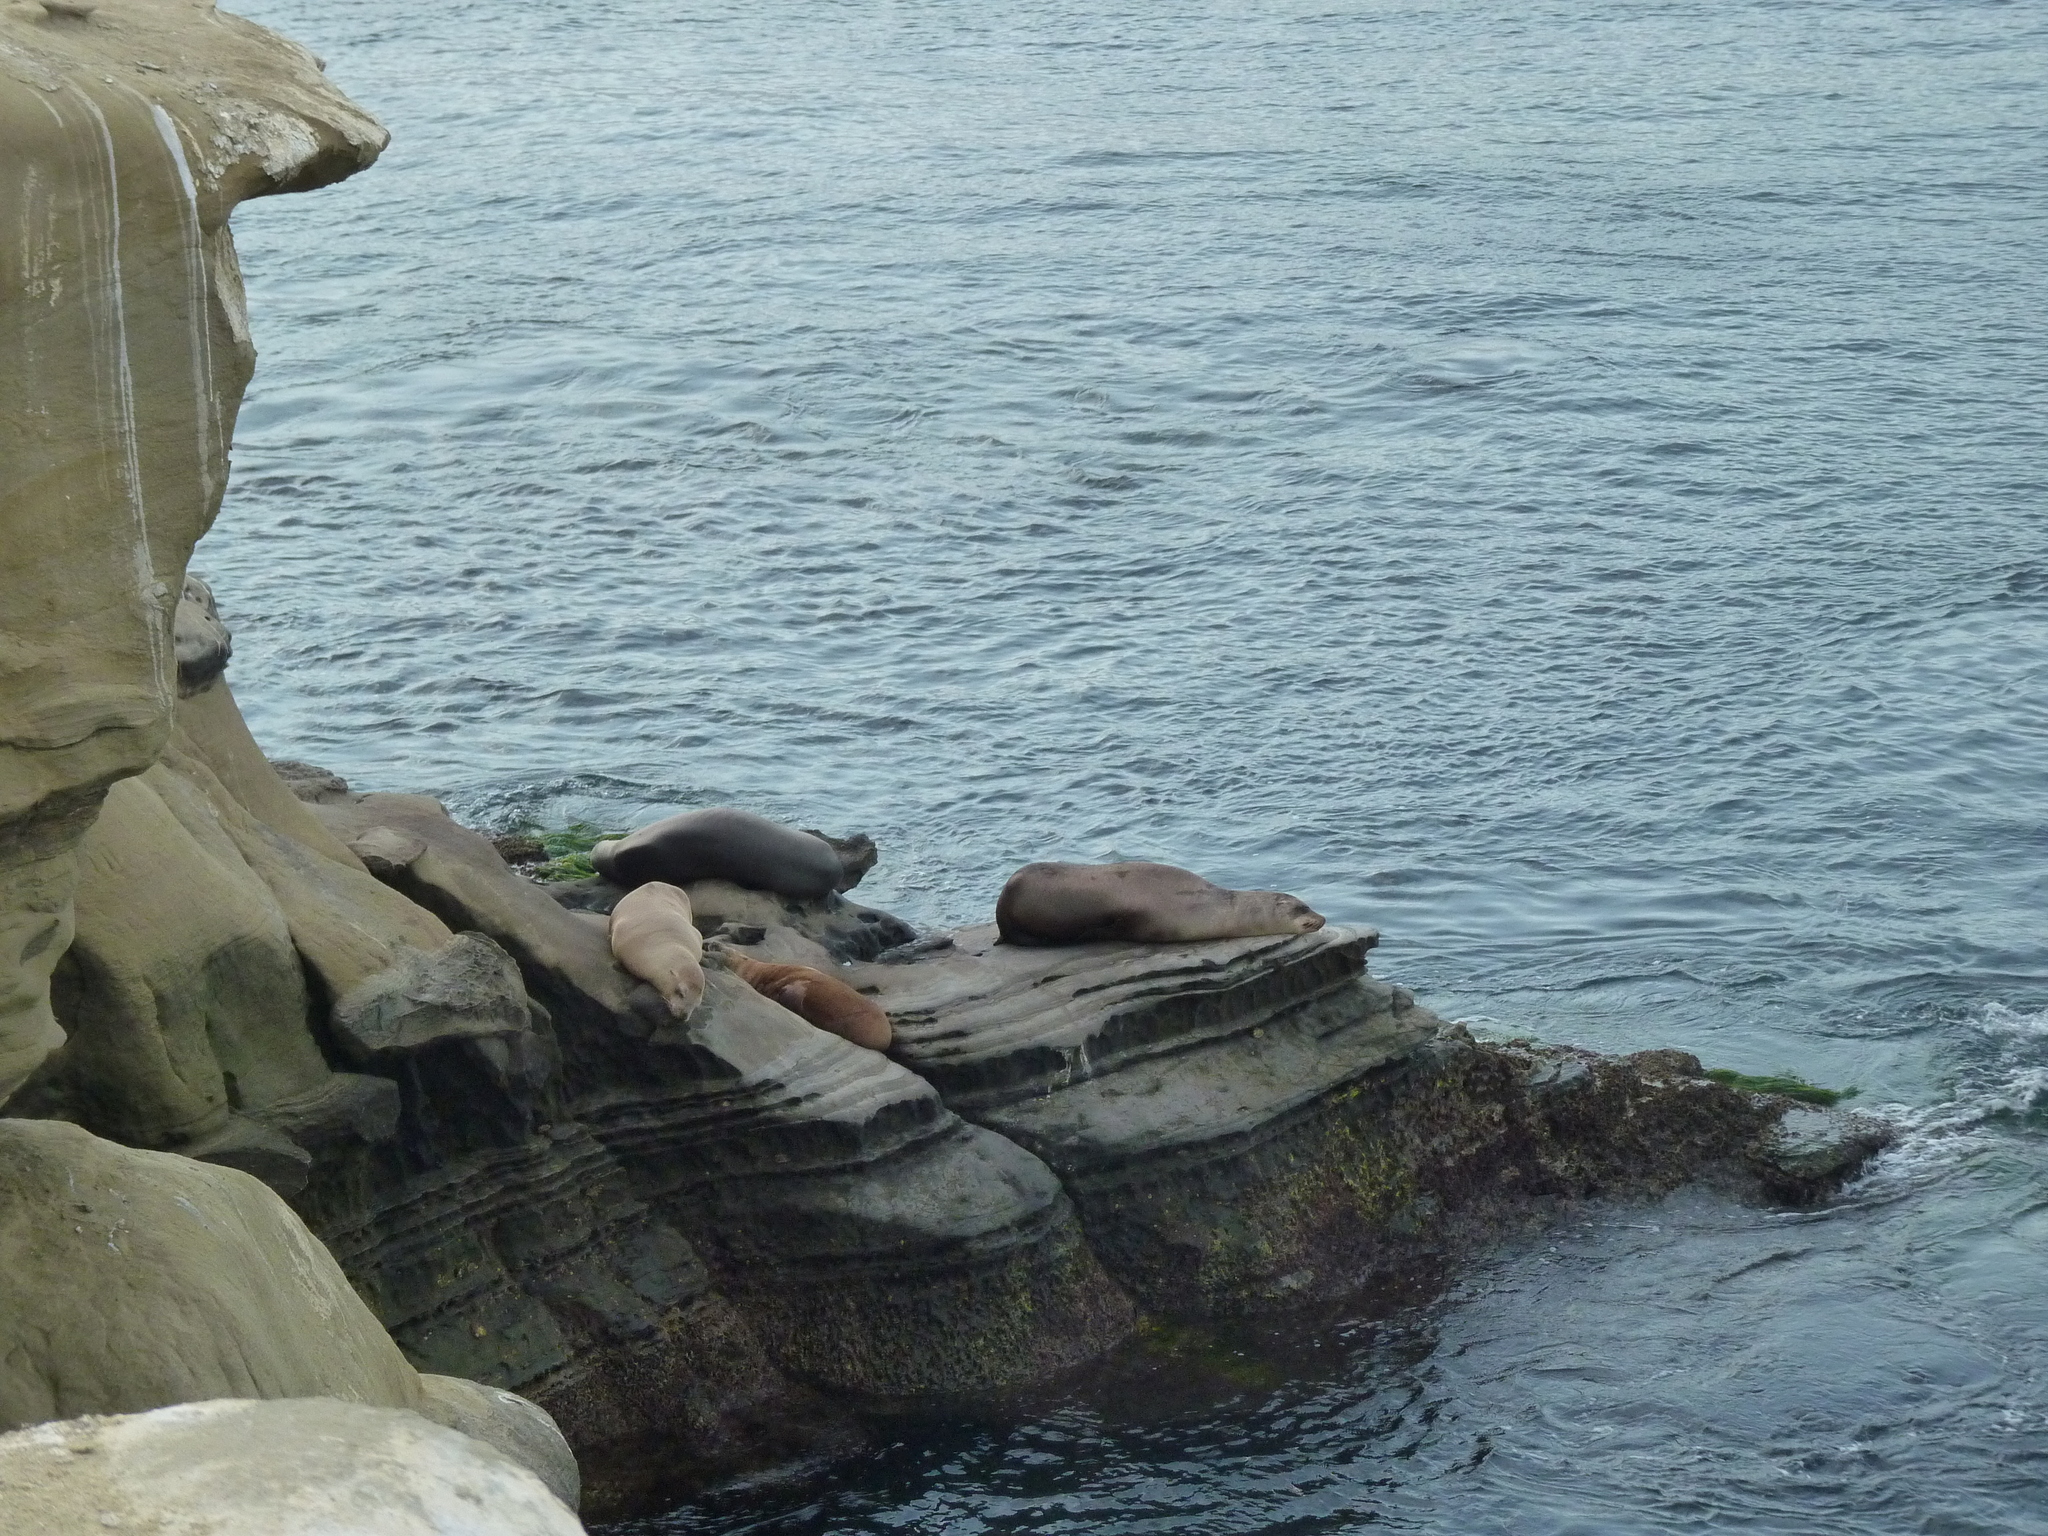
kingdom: Animalia
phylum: Chordata
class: Mammalia
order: Carnivora
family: Otariidae
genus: Zalophus
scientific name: Zalophus californianus
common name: California sea lion
